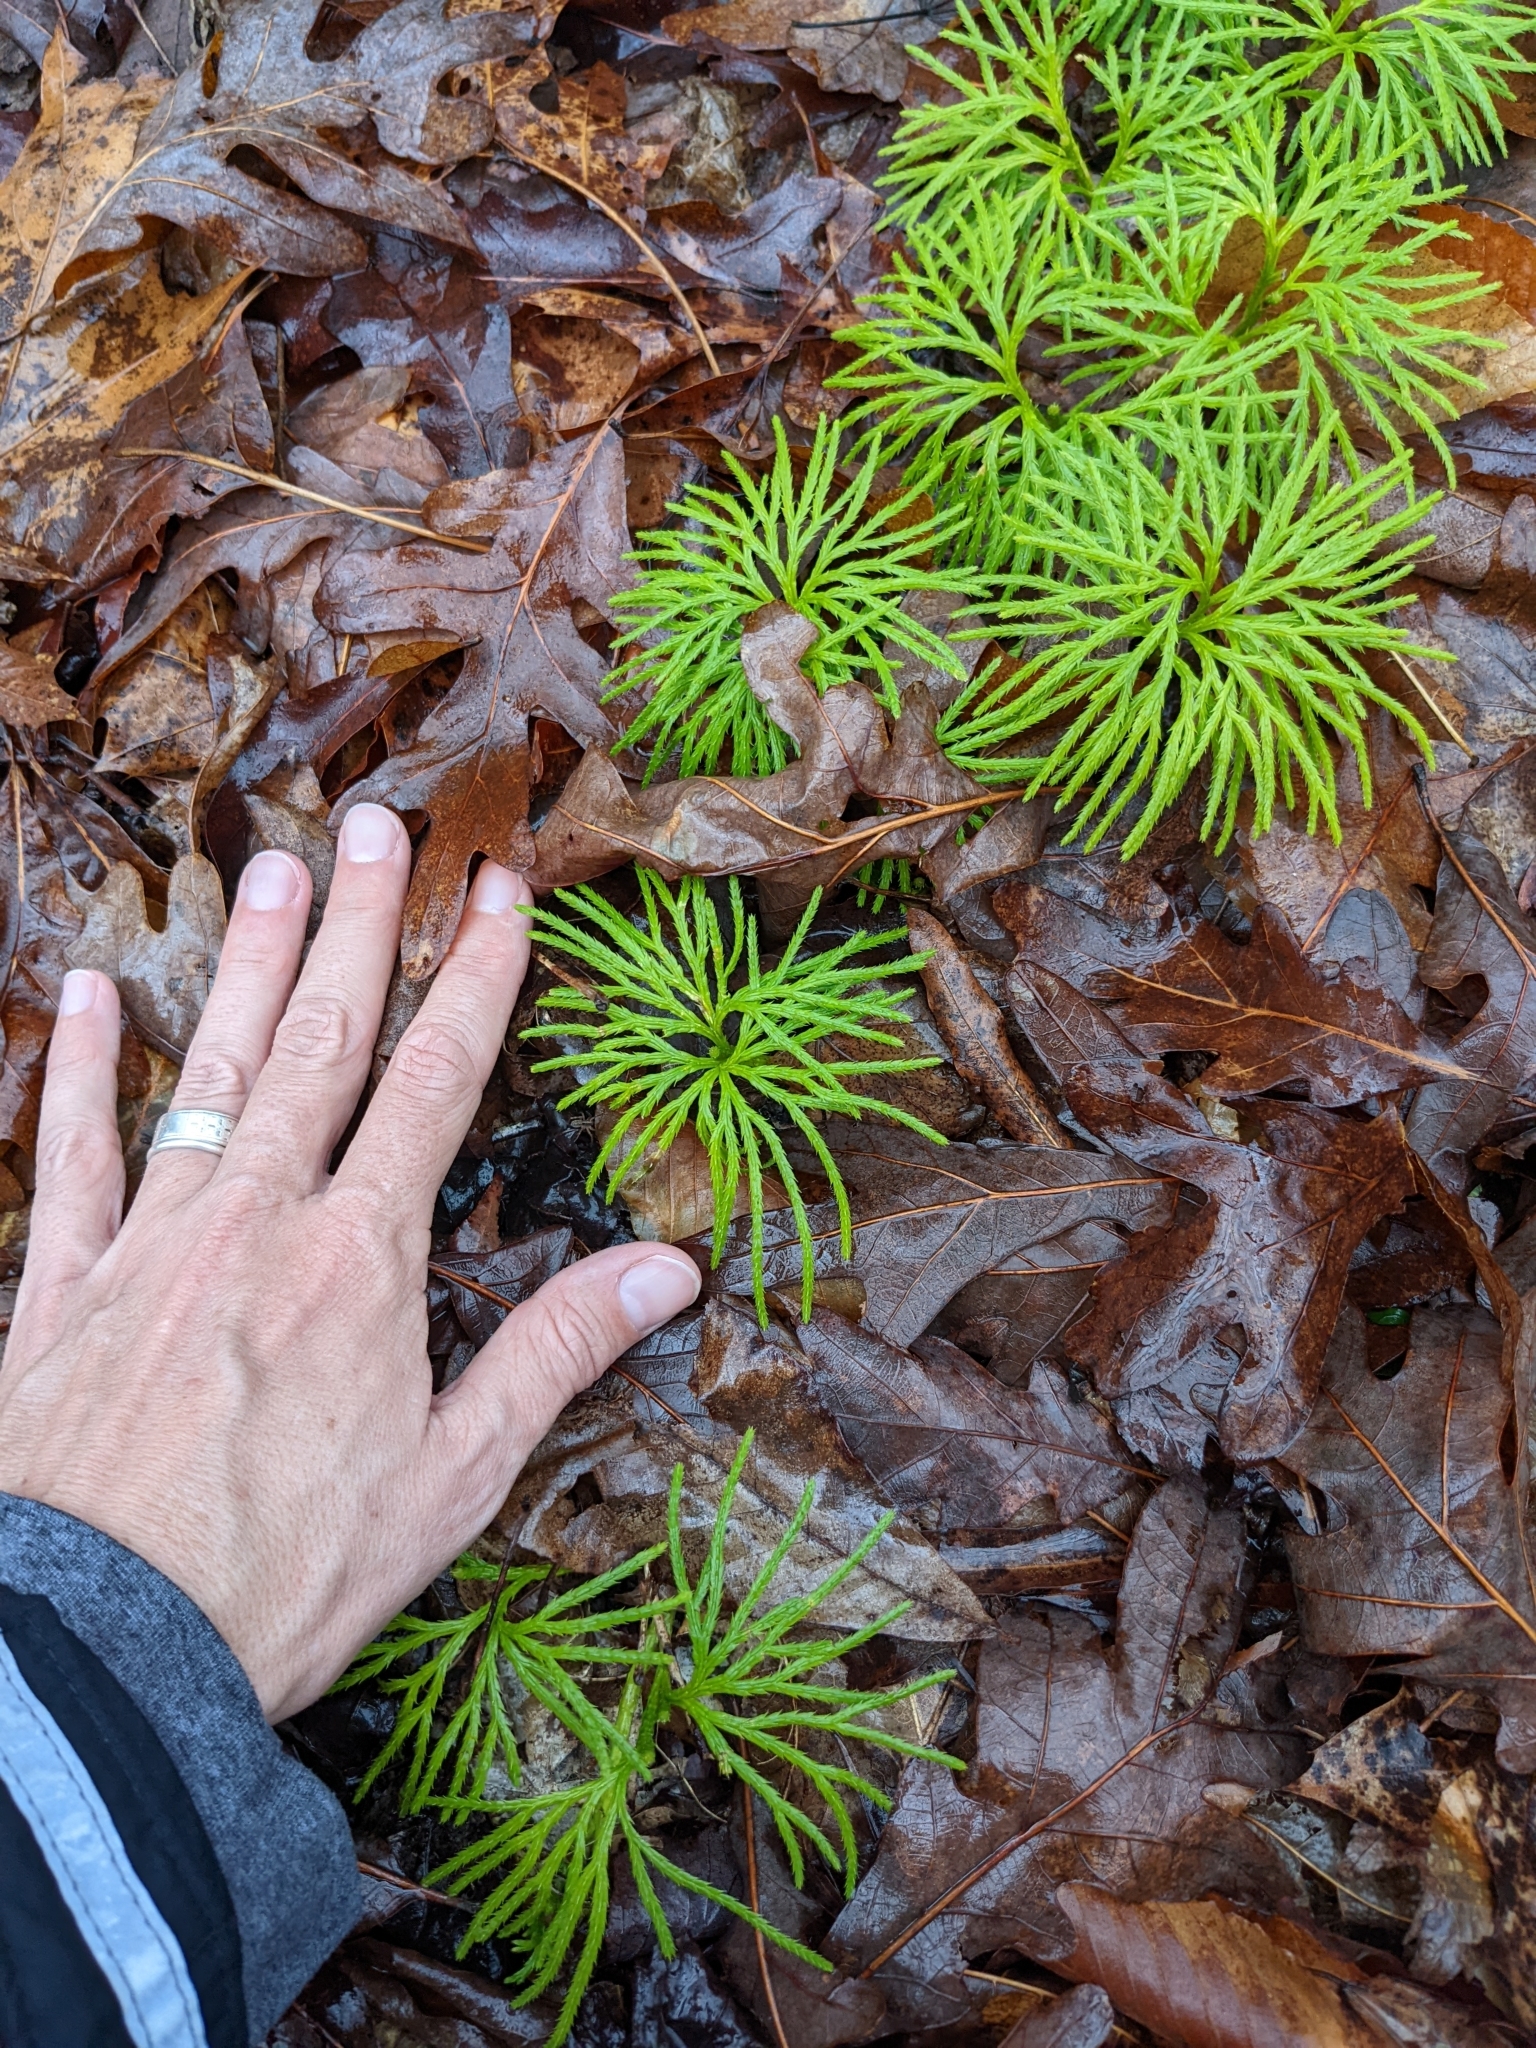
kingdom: Plantae
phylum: Tracheophyta
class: Lycopodiopsida
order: Lycopodiales
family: Lycopodiaceae
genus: Diphasiastrum
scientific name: Diphasiastrum digitatum
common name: Southern running-pine
